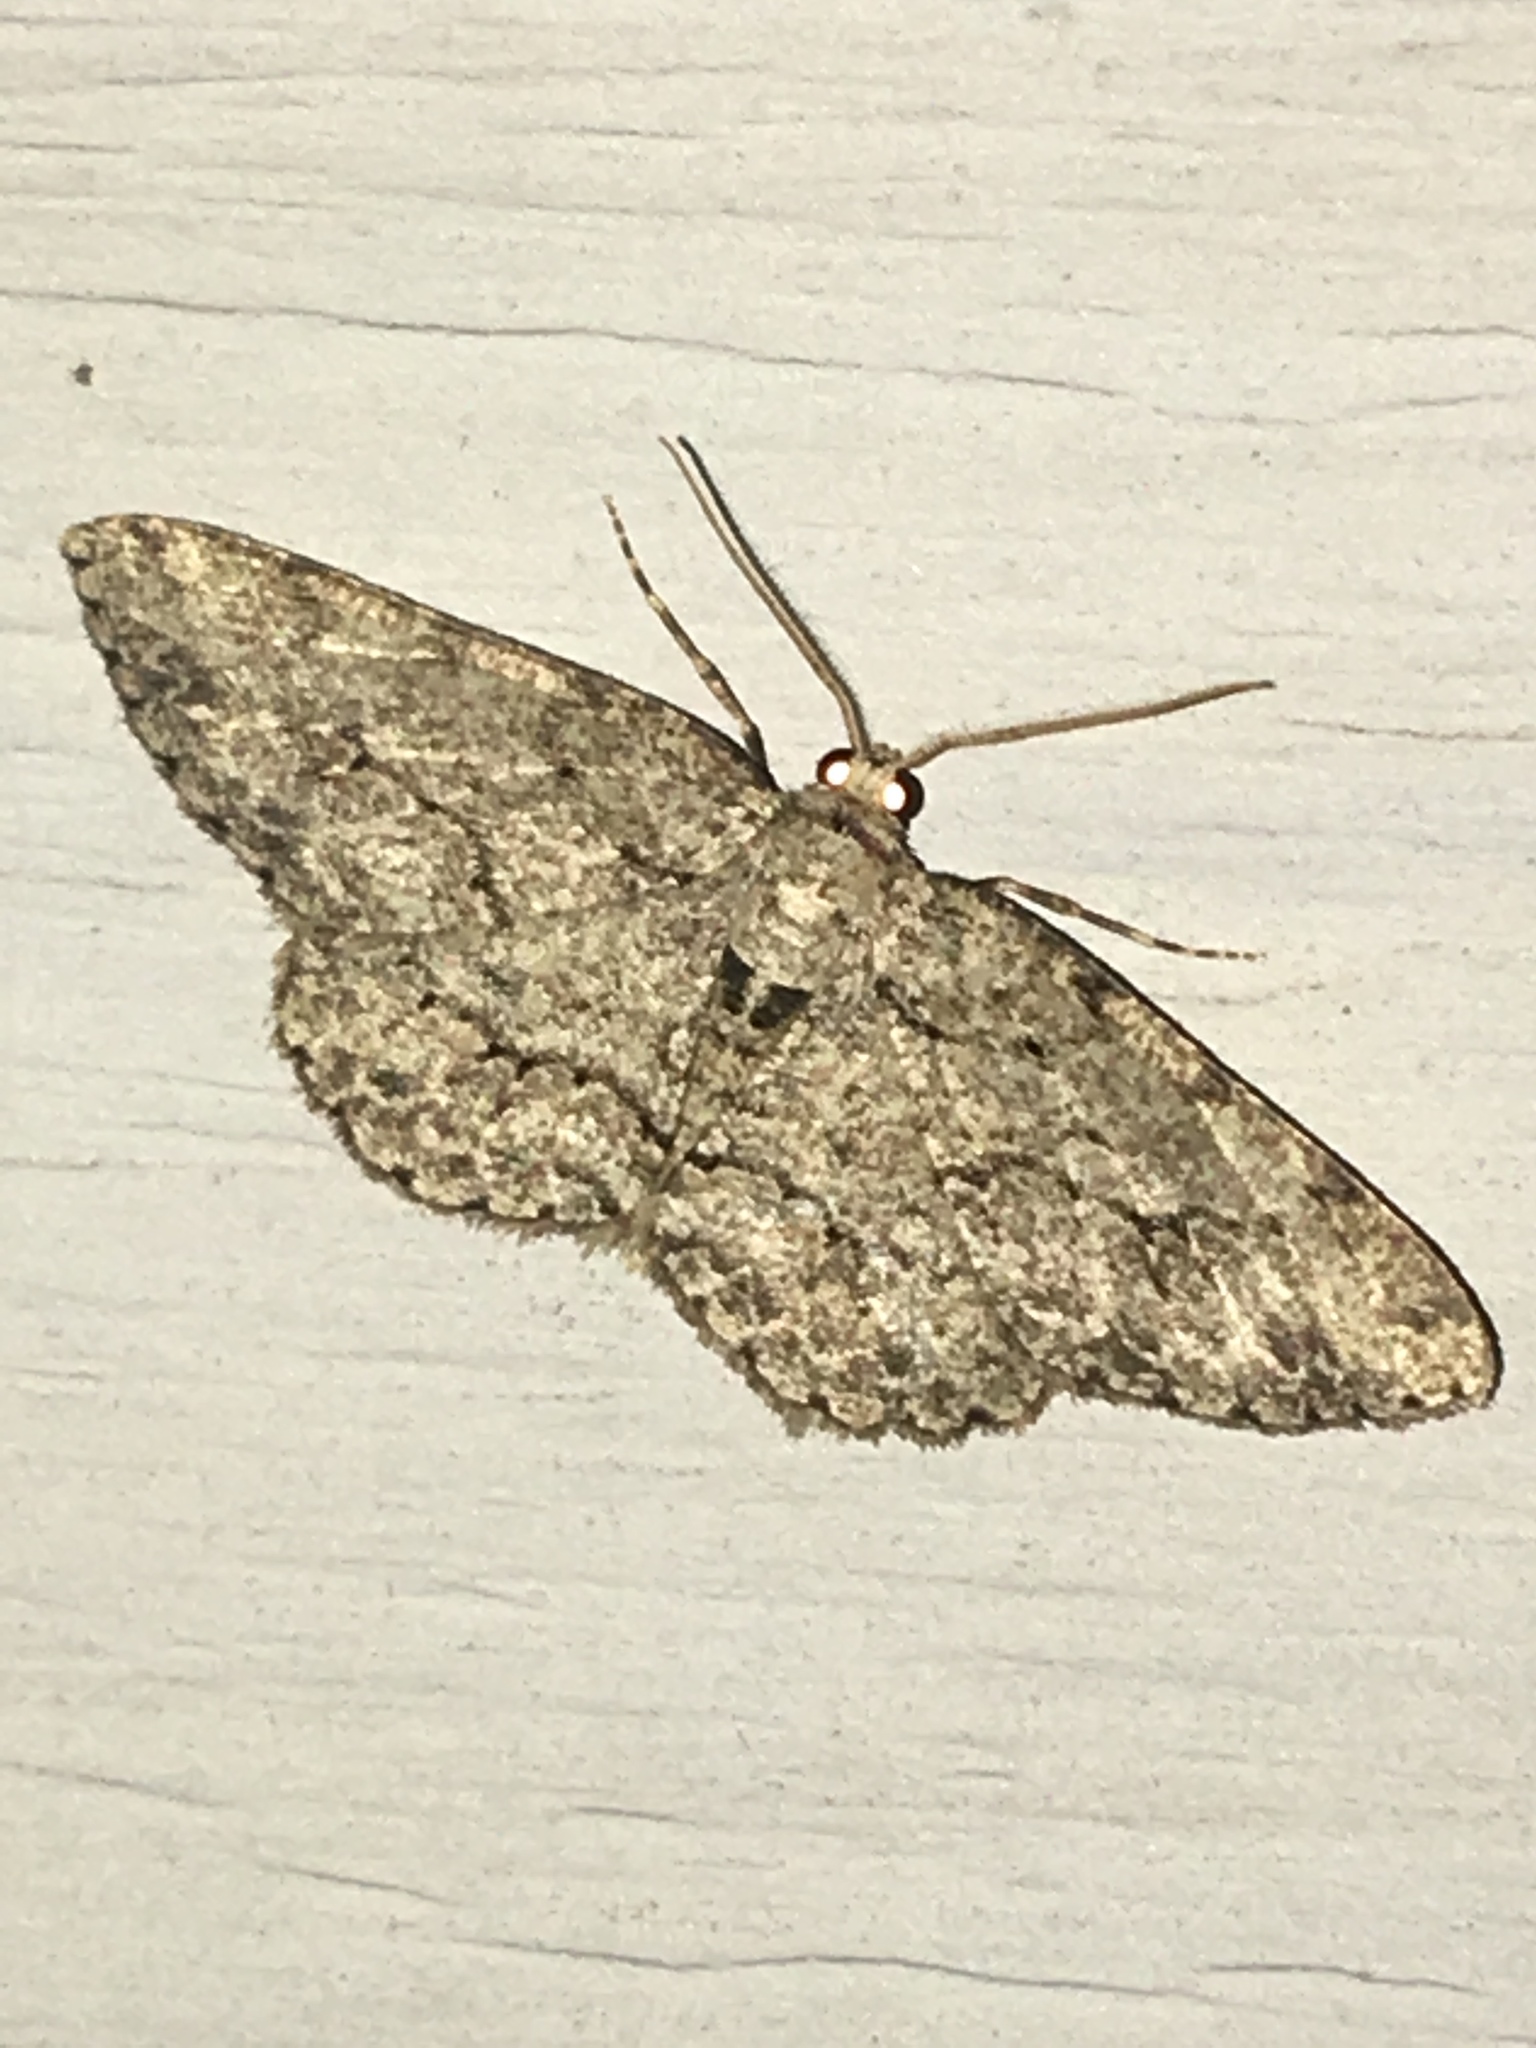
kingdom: Animalia
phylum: Arthropoda
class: Insecta
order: Lepidoptera
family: Geometridae
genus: Ectropis
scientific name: Ectropis crepuscularia
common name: Engrailed
